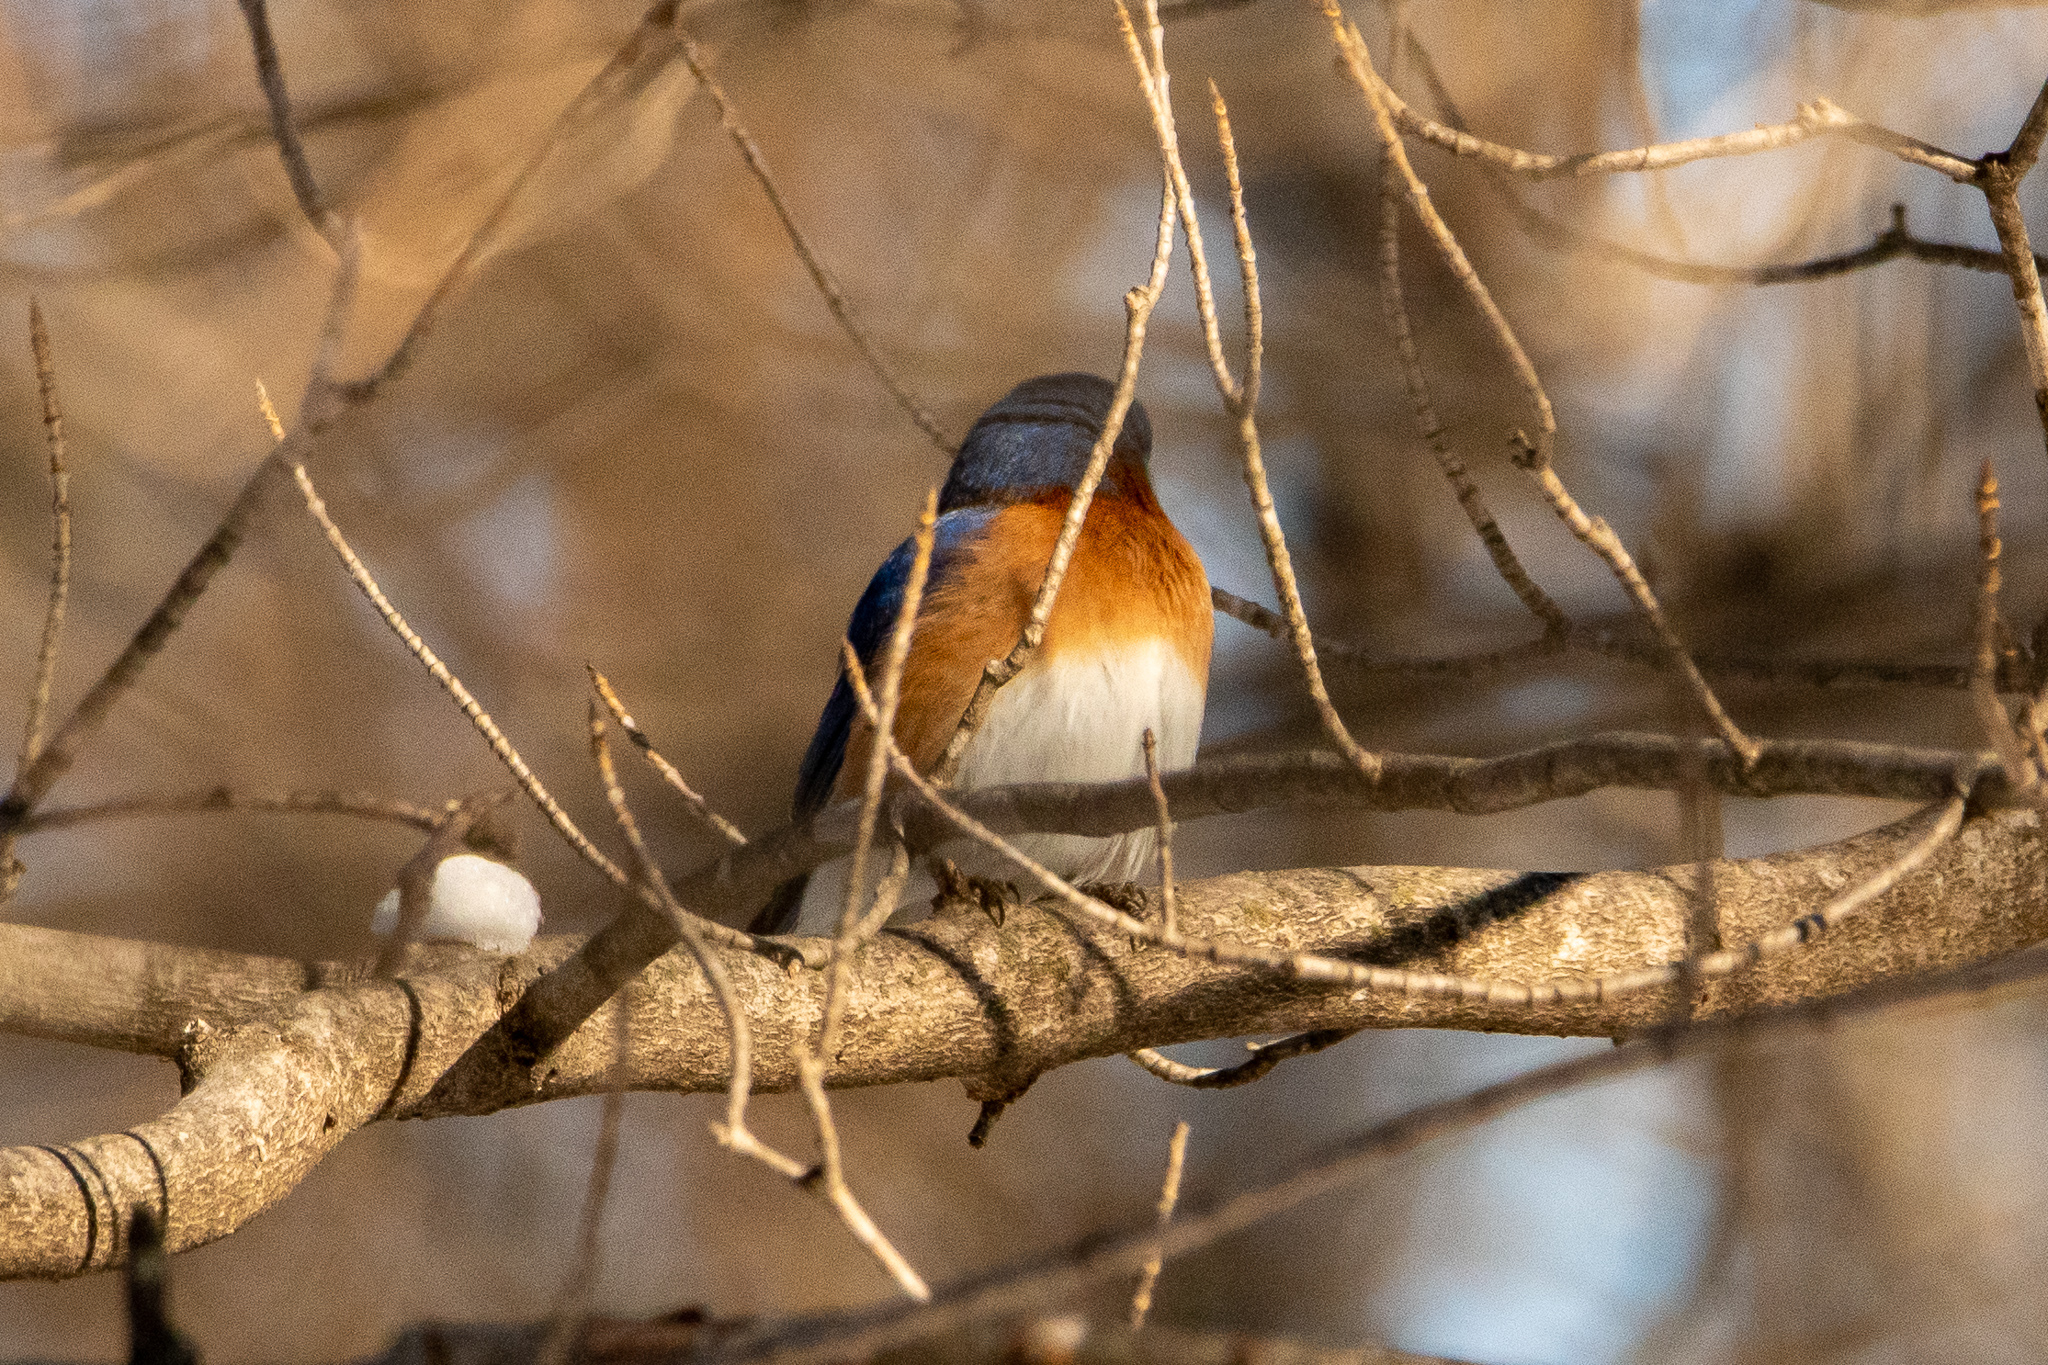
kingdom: Animalia
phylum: Chordata
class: Aves
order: Passeriformes
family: Turdidae
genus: Sialia
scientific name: Sialia sialis
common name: Eastern bluebird
